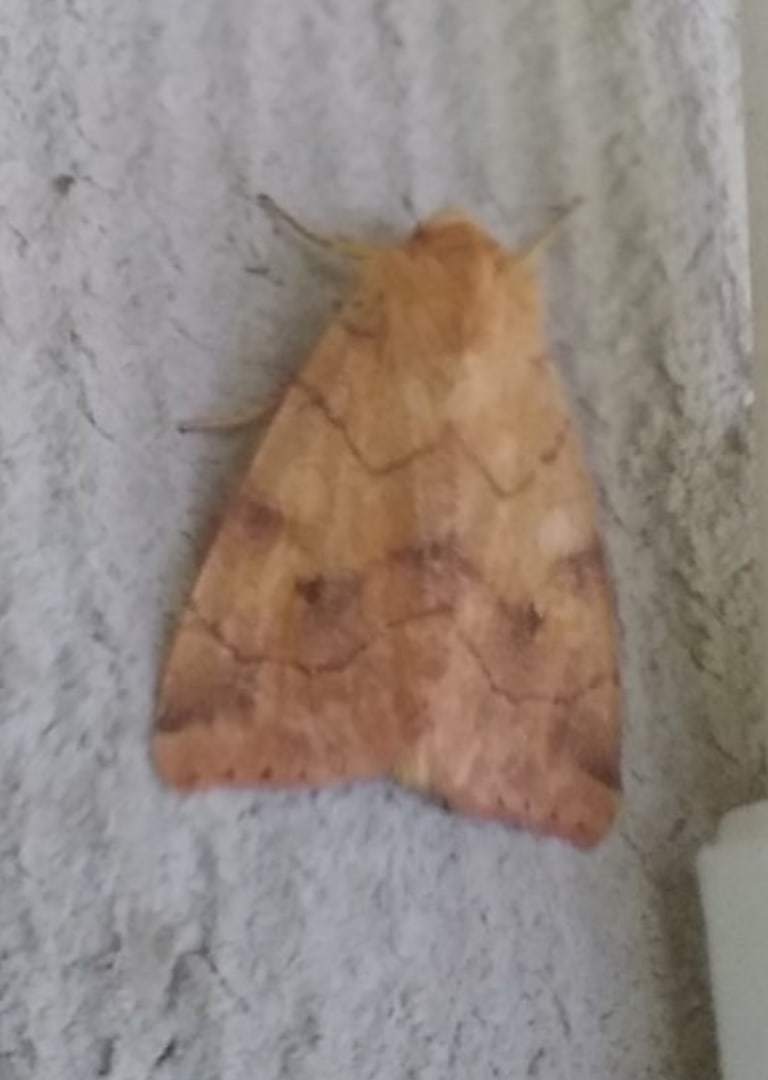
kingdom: Animalia
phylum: Arthropoda
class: Insecta
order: Lepidoptera
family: Noctuidae
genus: Enargia
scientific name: Enargia paleacea
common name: Angle-striped sallow
